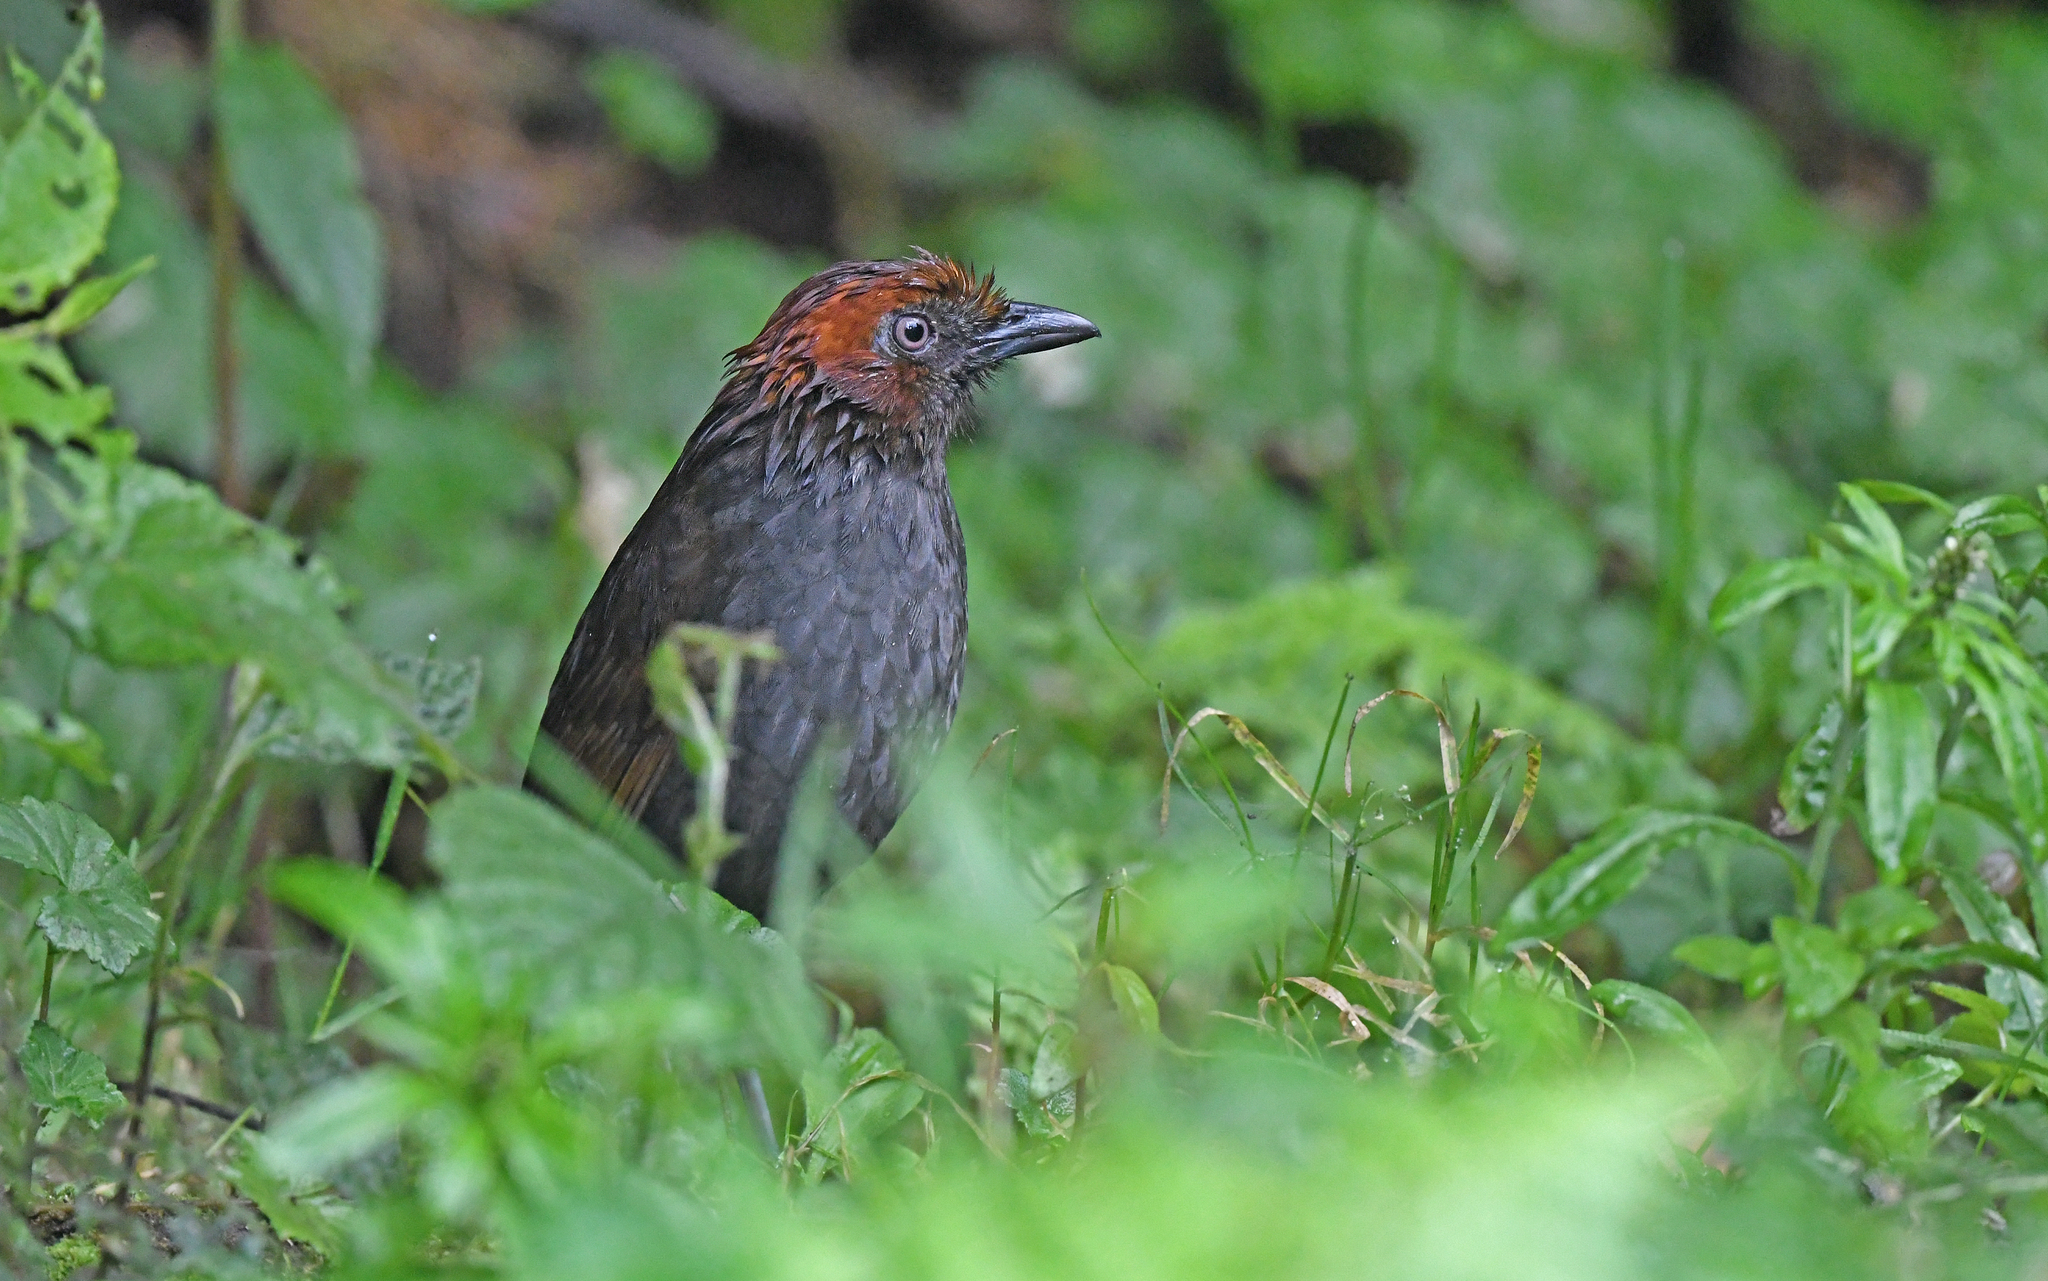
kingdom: Animalia
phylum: Chordata
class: Aves
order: Passeriformes
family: Grallariidae
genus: Grallaria
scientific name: Grallaria nuchalis
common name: Chestnut-naped antpitta
